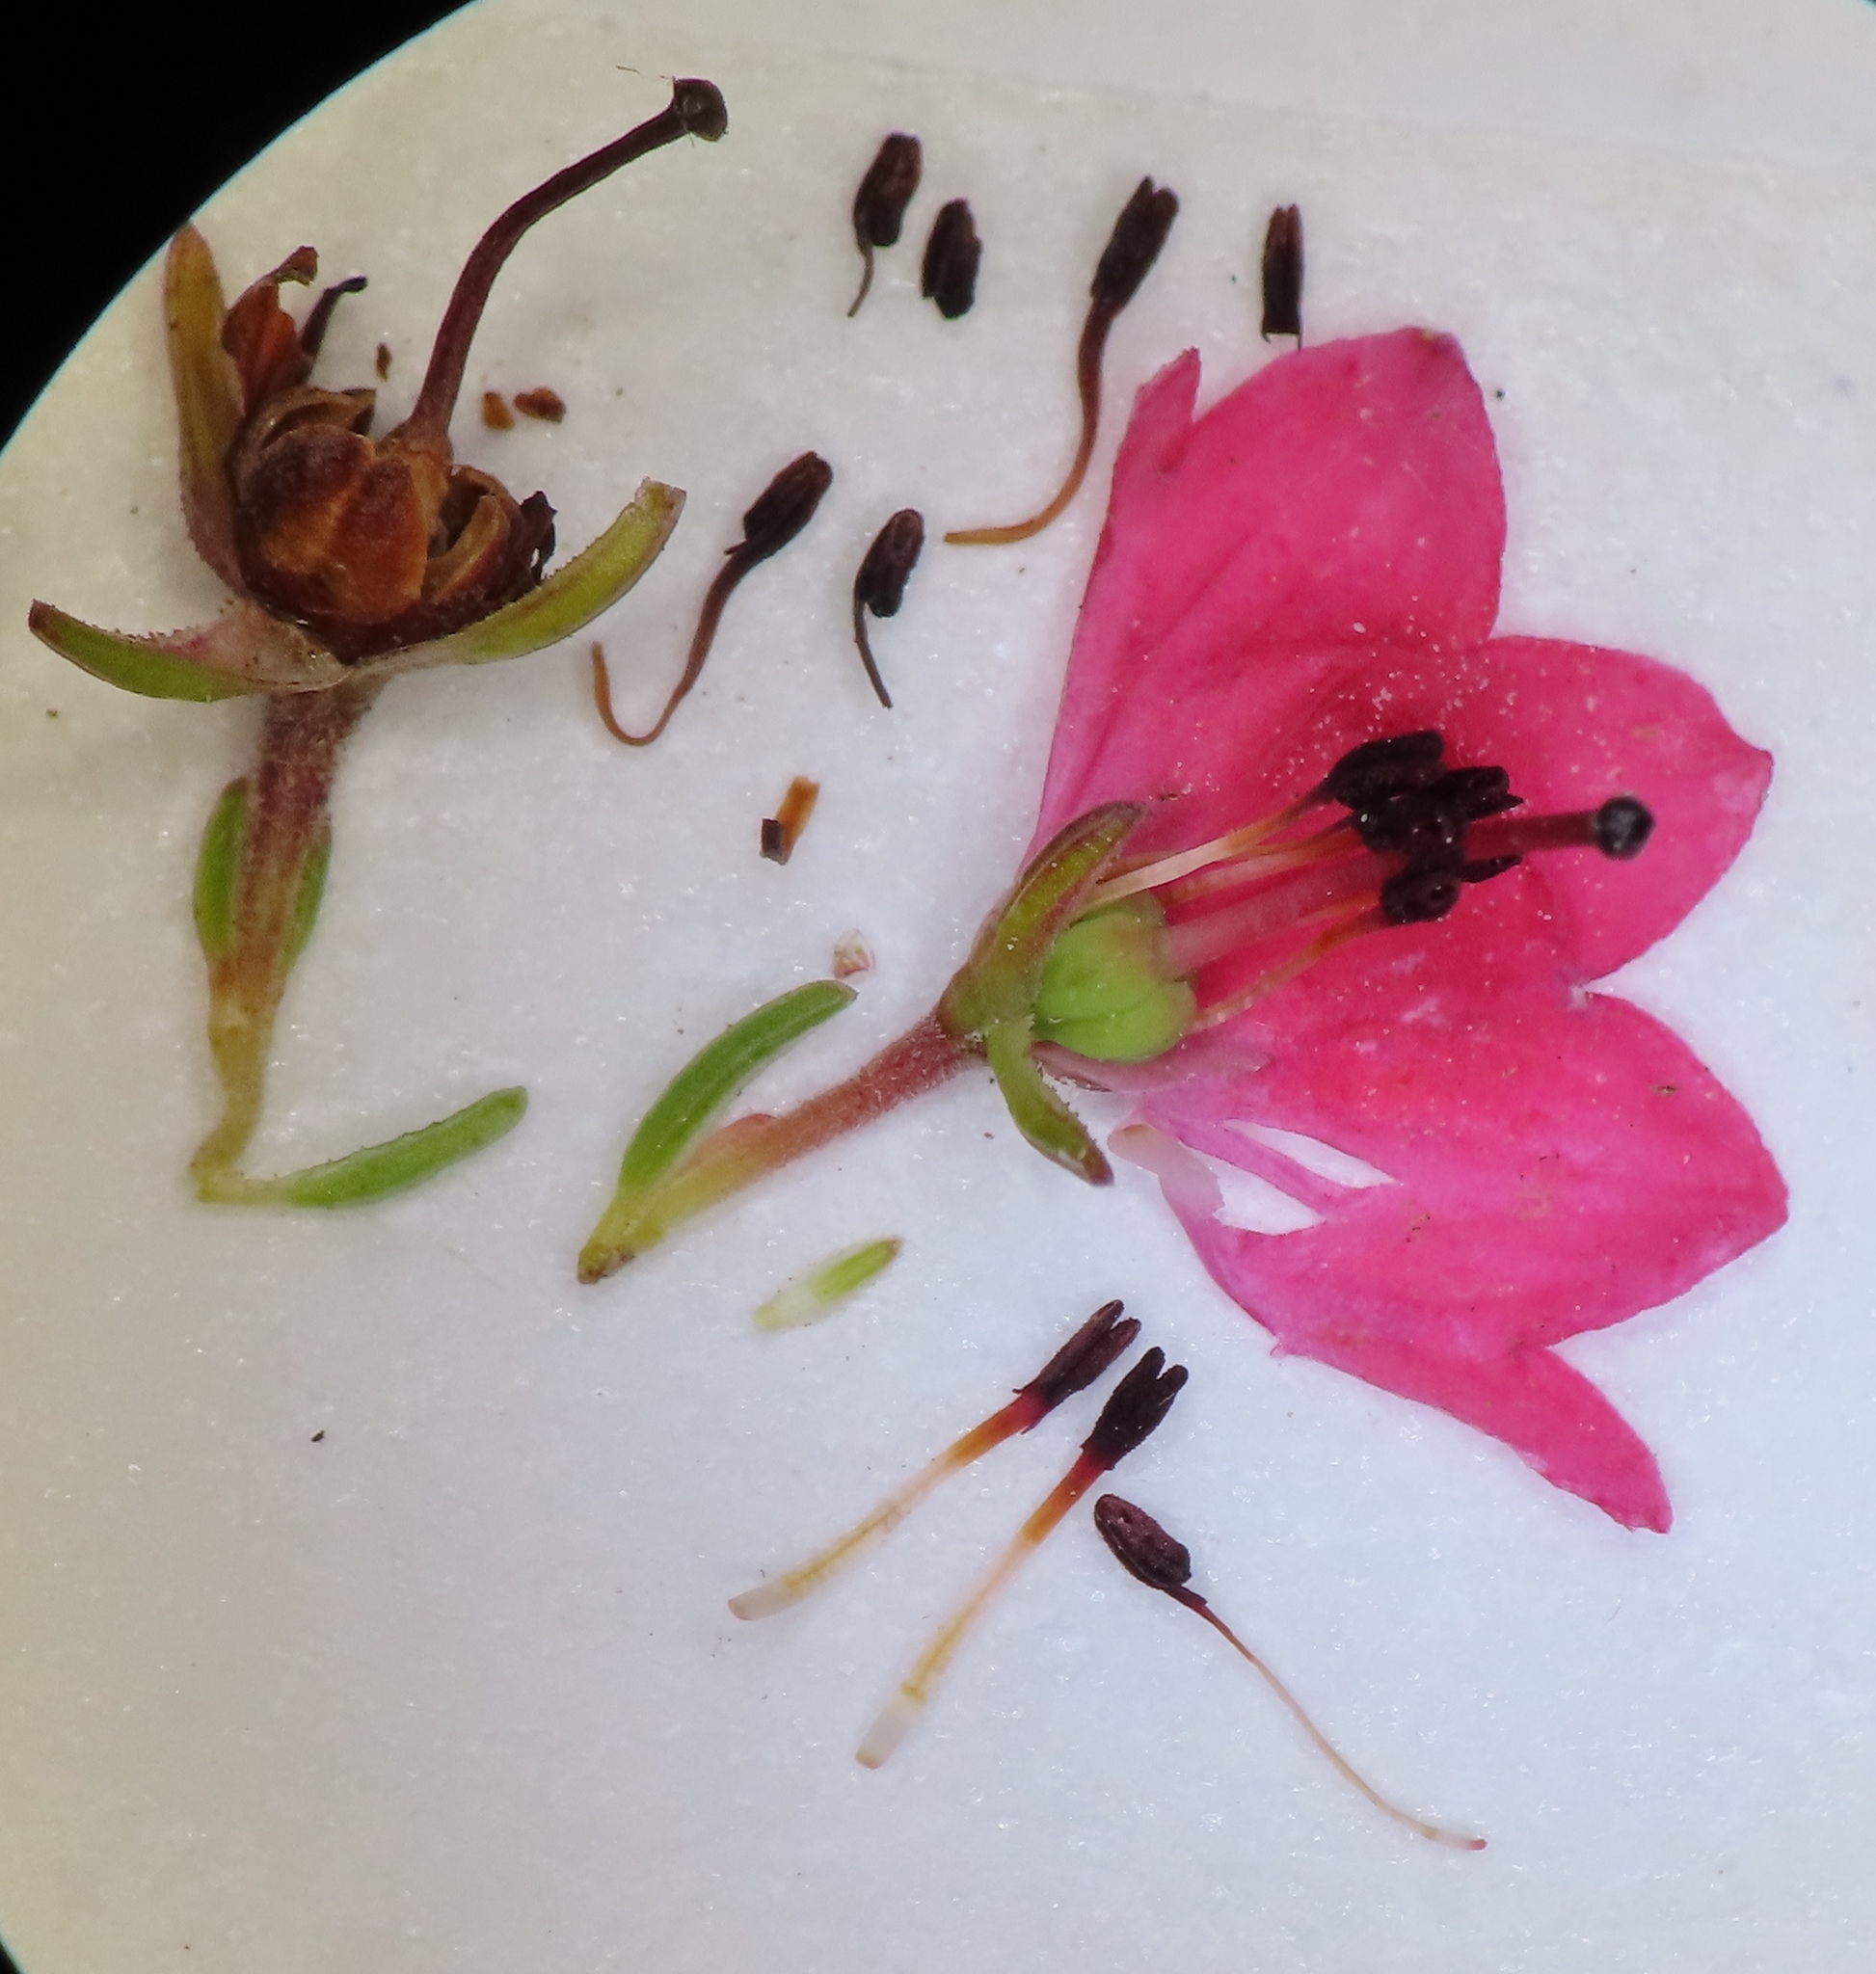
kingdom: Plantae
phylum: Tracheophyta
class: Magnoliopsida
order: Ericales
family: Ericaceae
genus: Erica
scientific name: Erica elimensis
